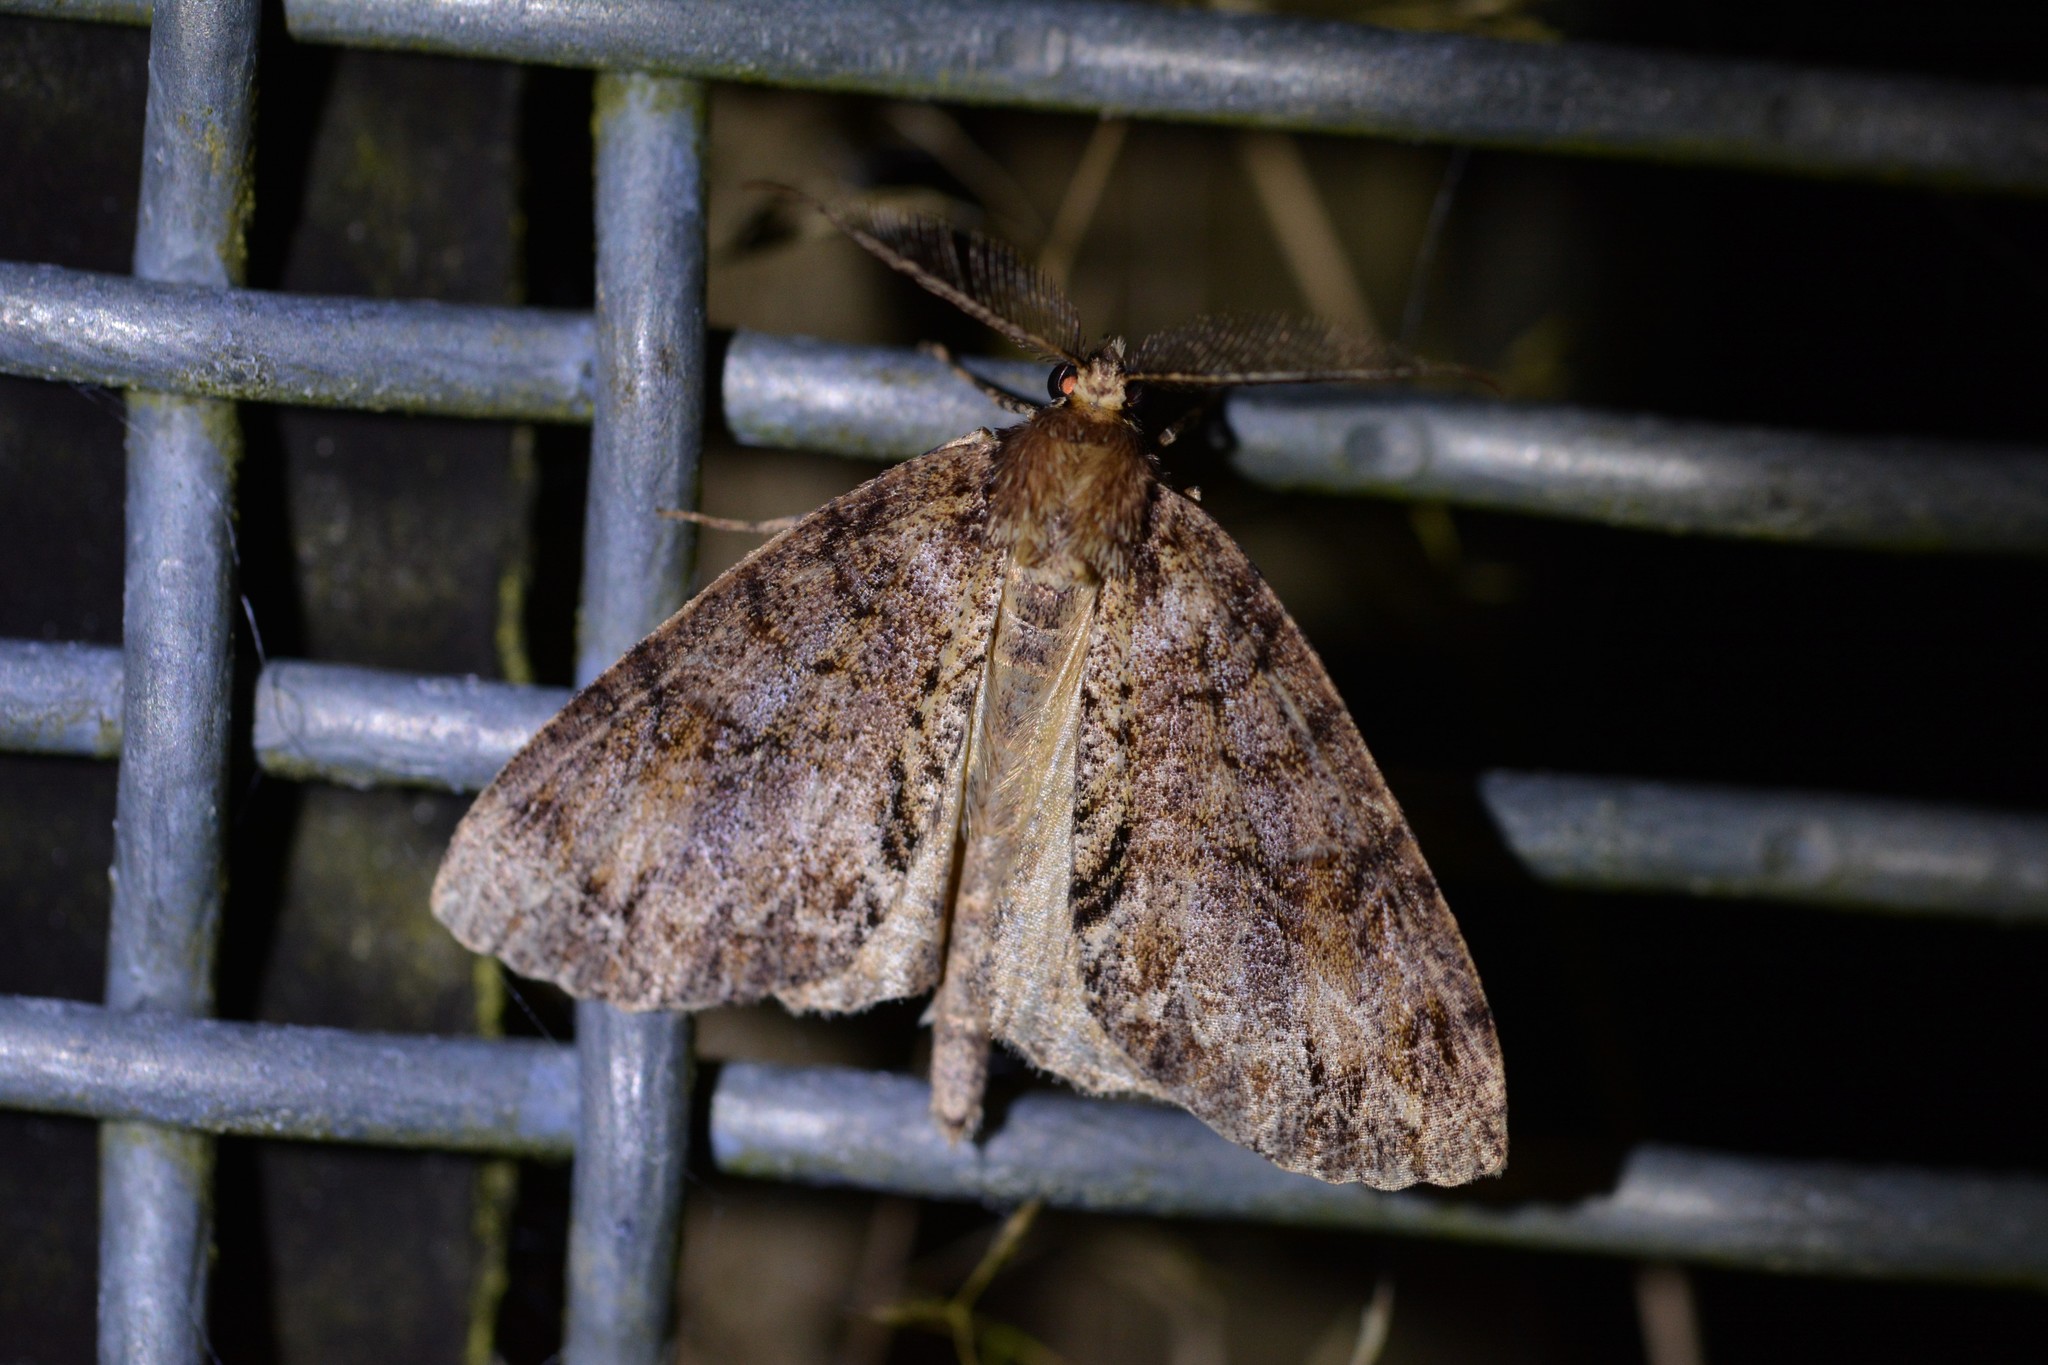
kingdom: Animalia
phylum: Arthropoda
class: Insecta
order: Lepidoptera
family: Geometridae
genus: Pseudocoremia
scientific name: Pseudocoremia suavis
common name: Common forest looper
